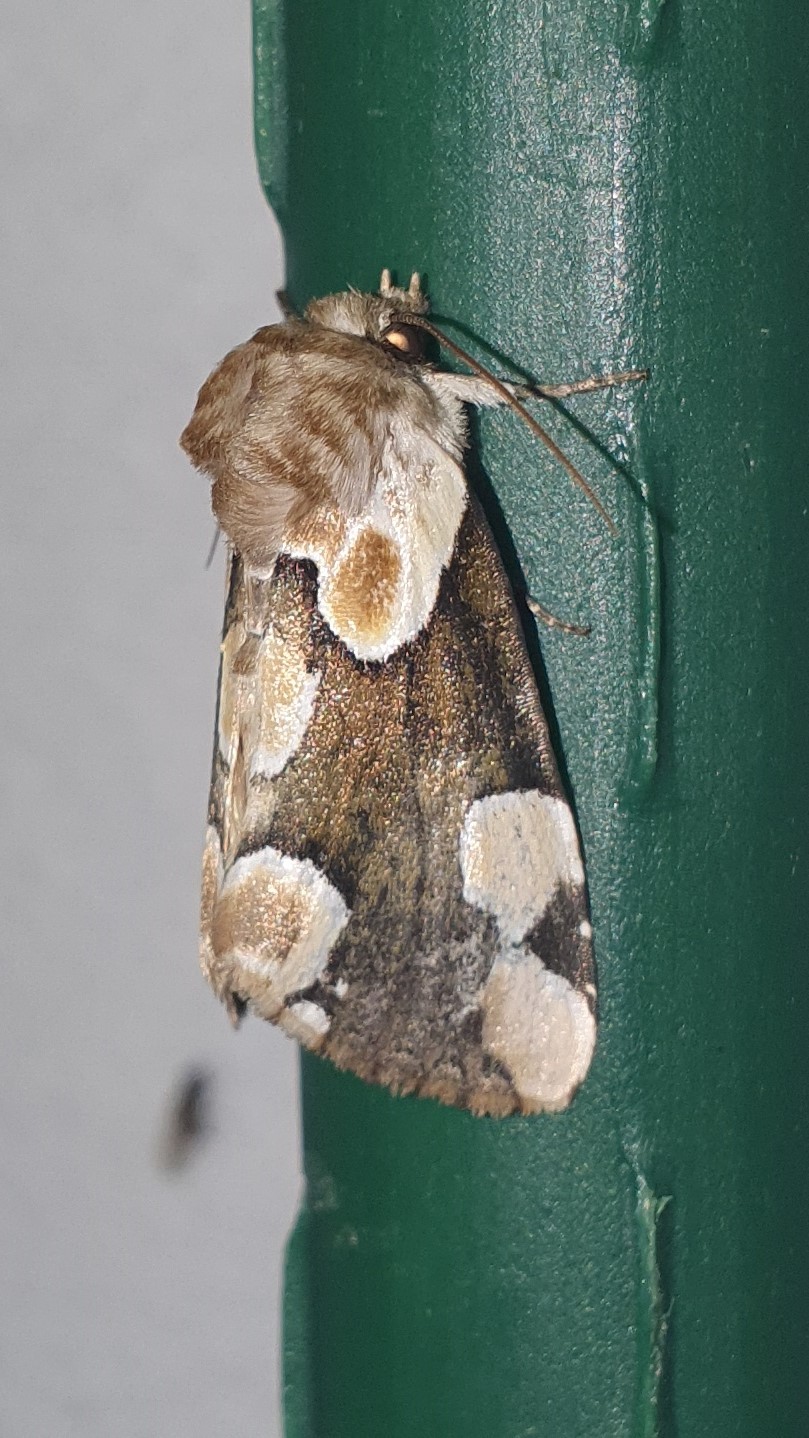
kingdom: Animalia
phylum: Arthropoda
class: Insecta
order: Lepidoptera
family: Drepanidae
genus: Thyatira
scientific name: Thyatira batis
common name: Peach blossom
